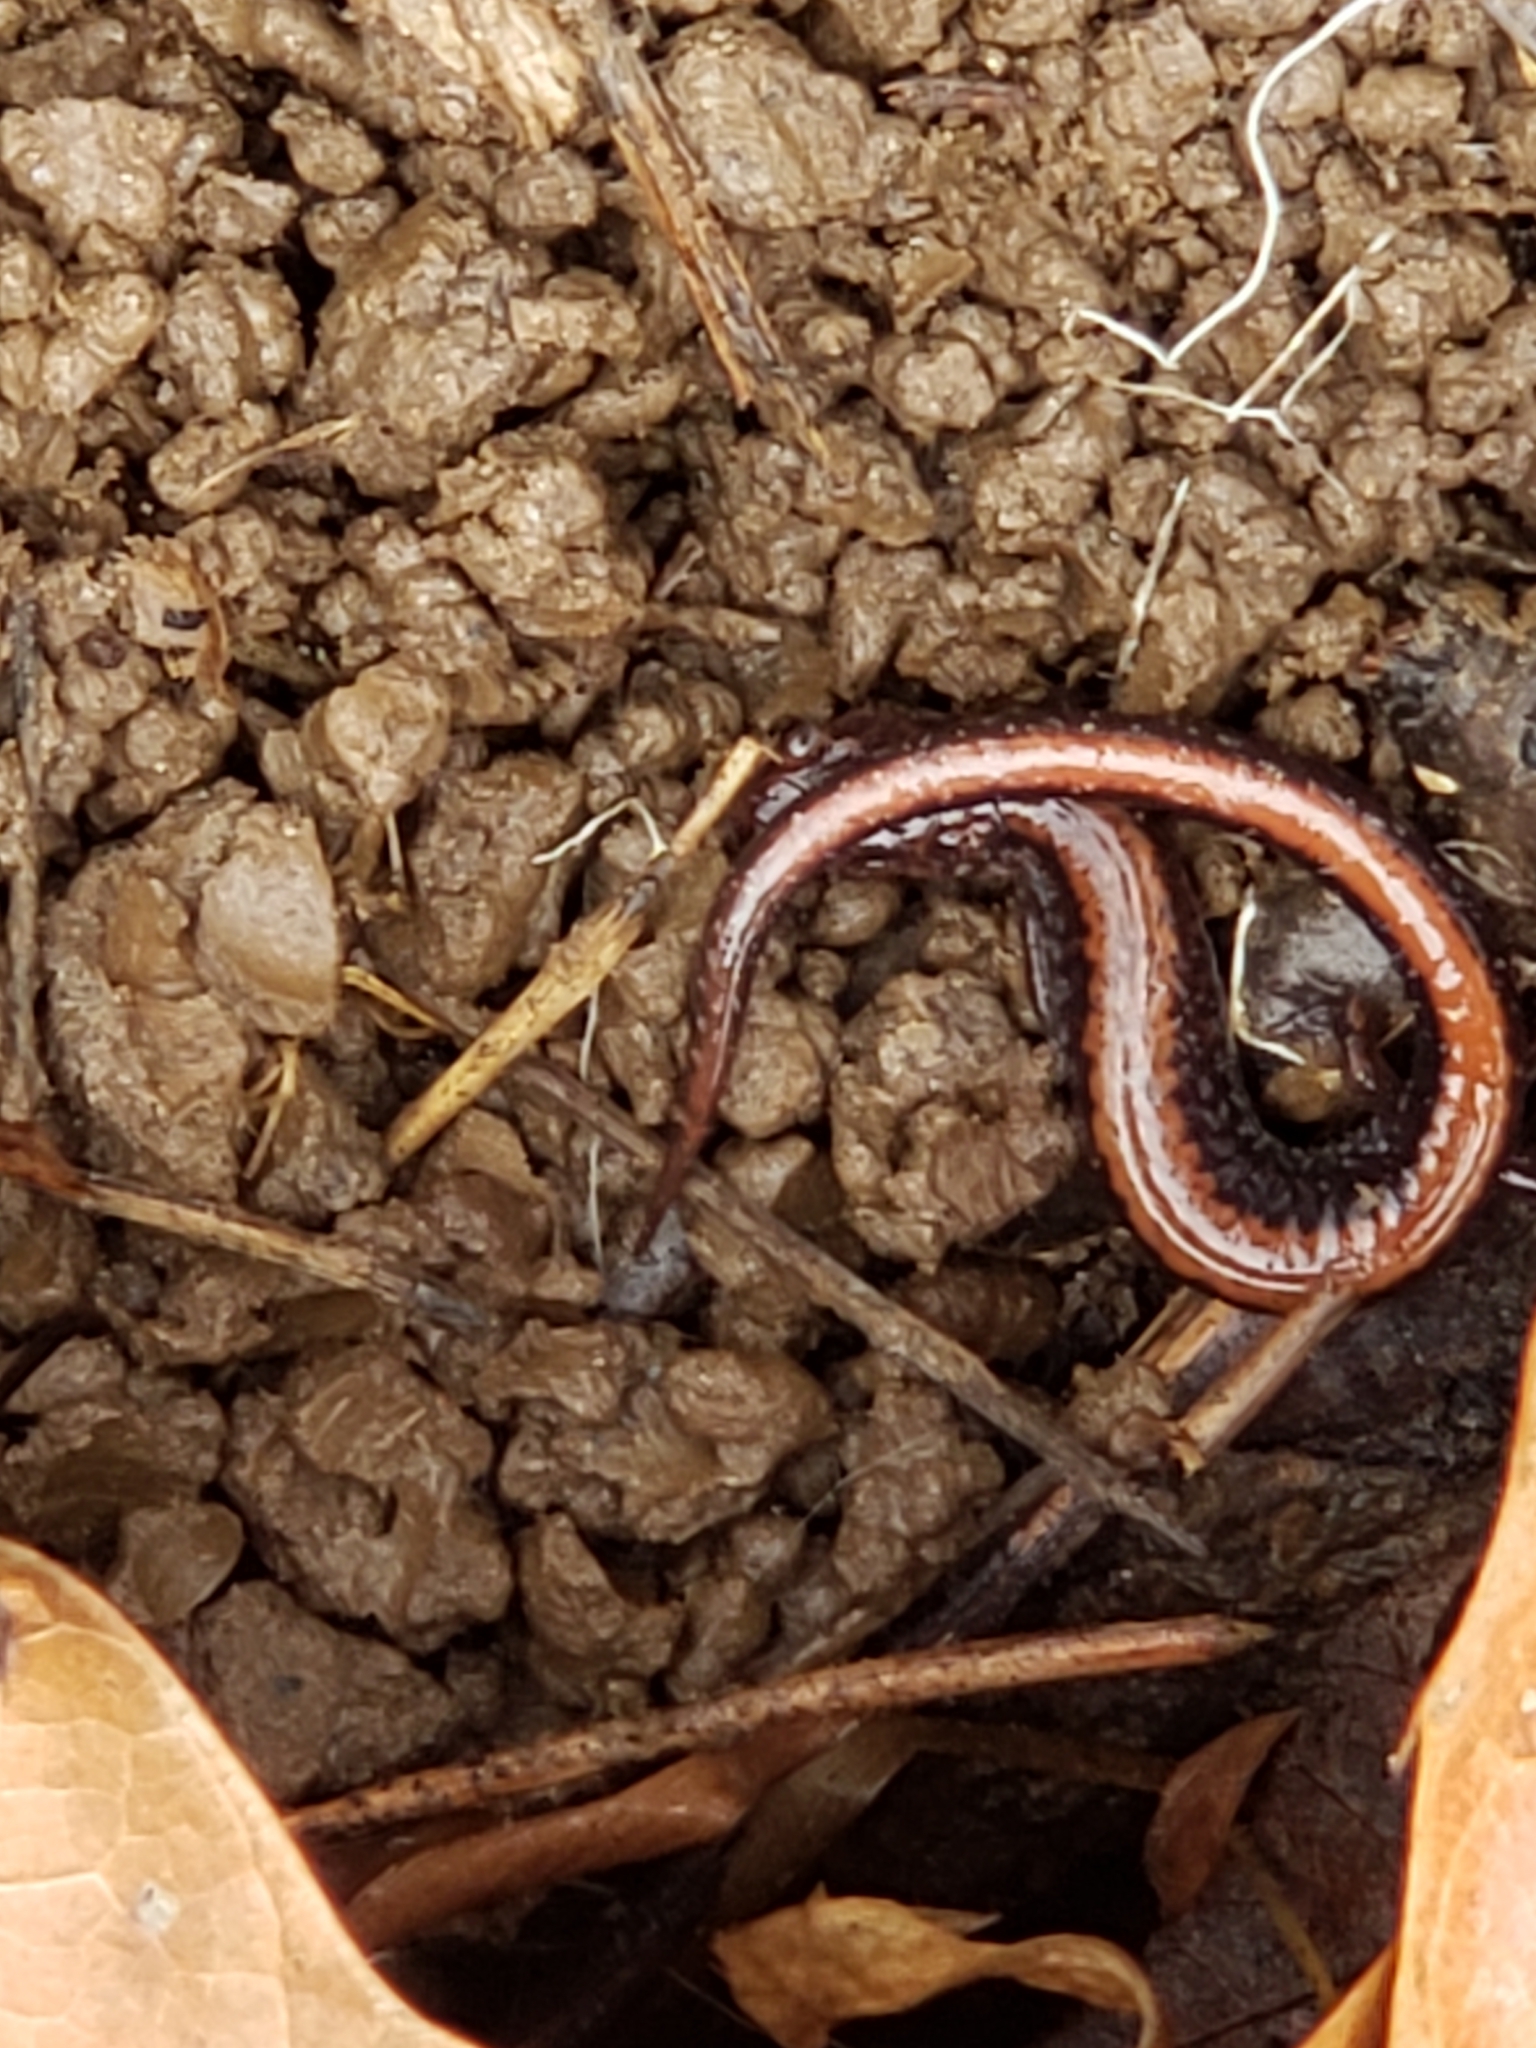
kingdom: Animalia
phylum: Chordata
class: Amphibia
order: Caudata
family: Plethodontidae
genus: Plethodon
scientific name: Plethodon cinereus
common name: Redback salamander
